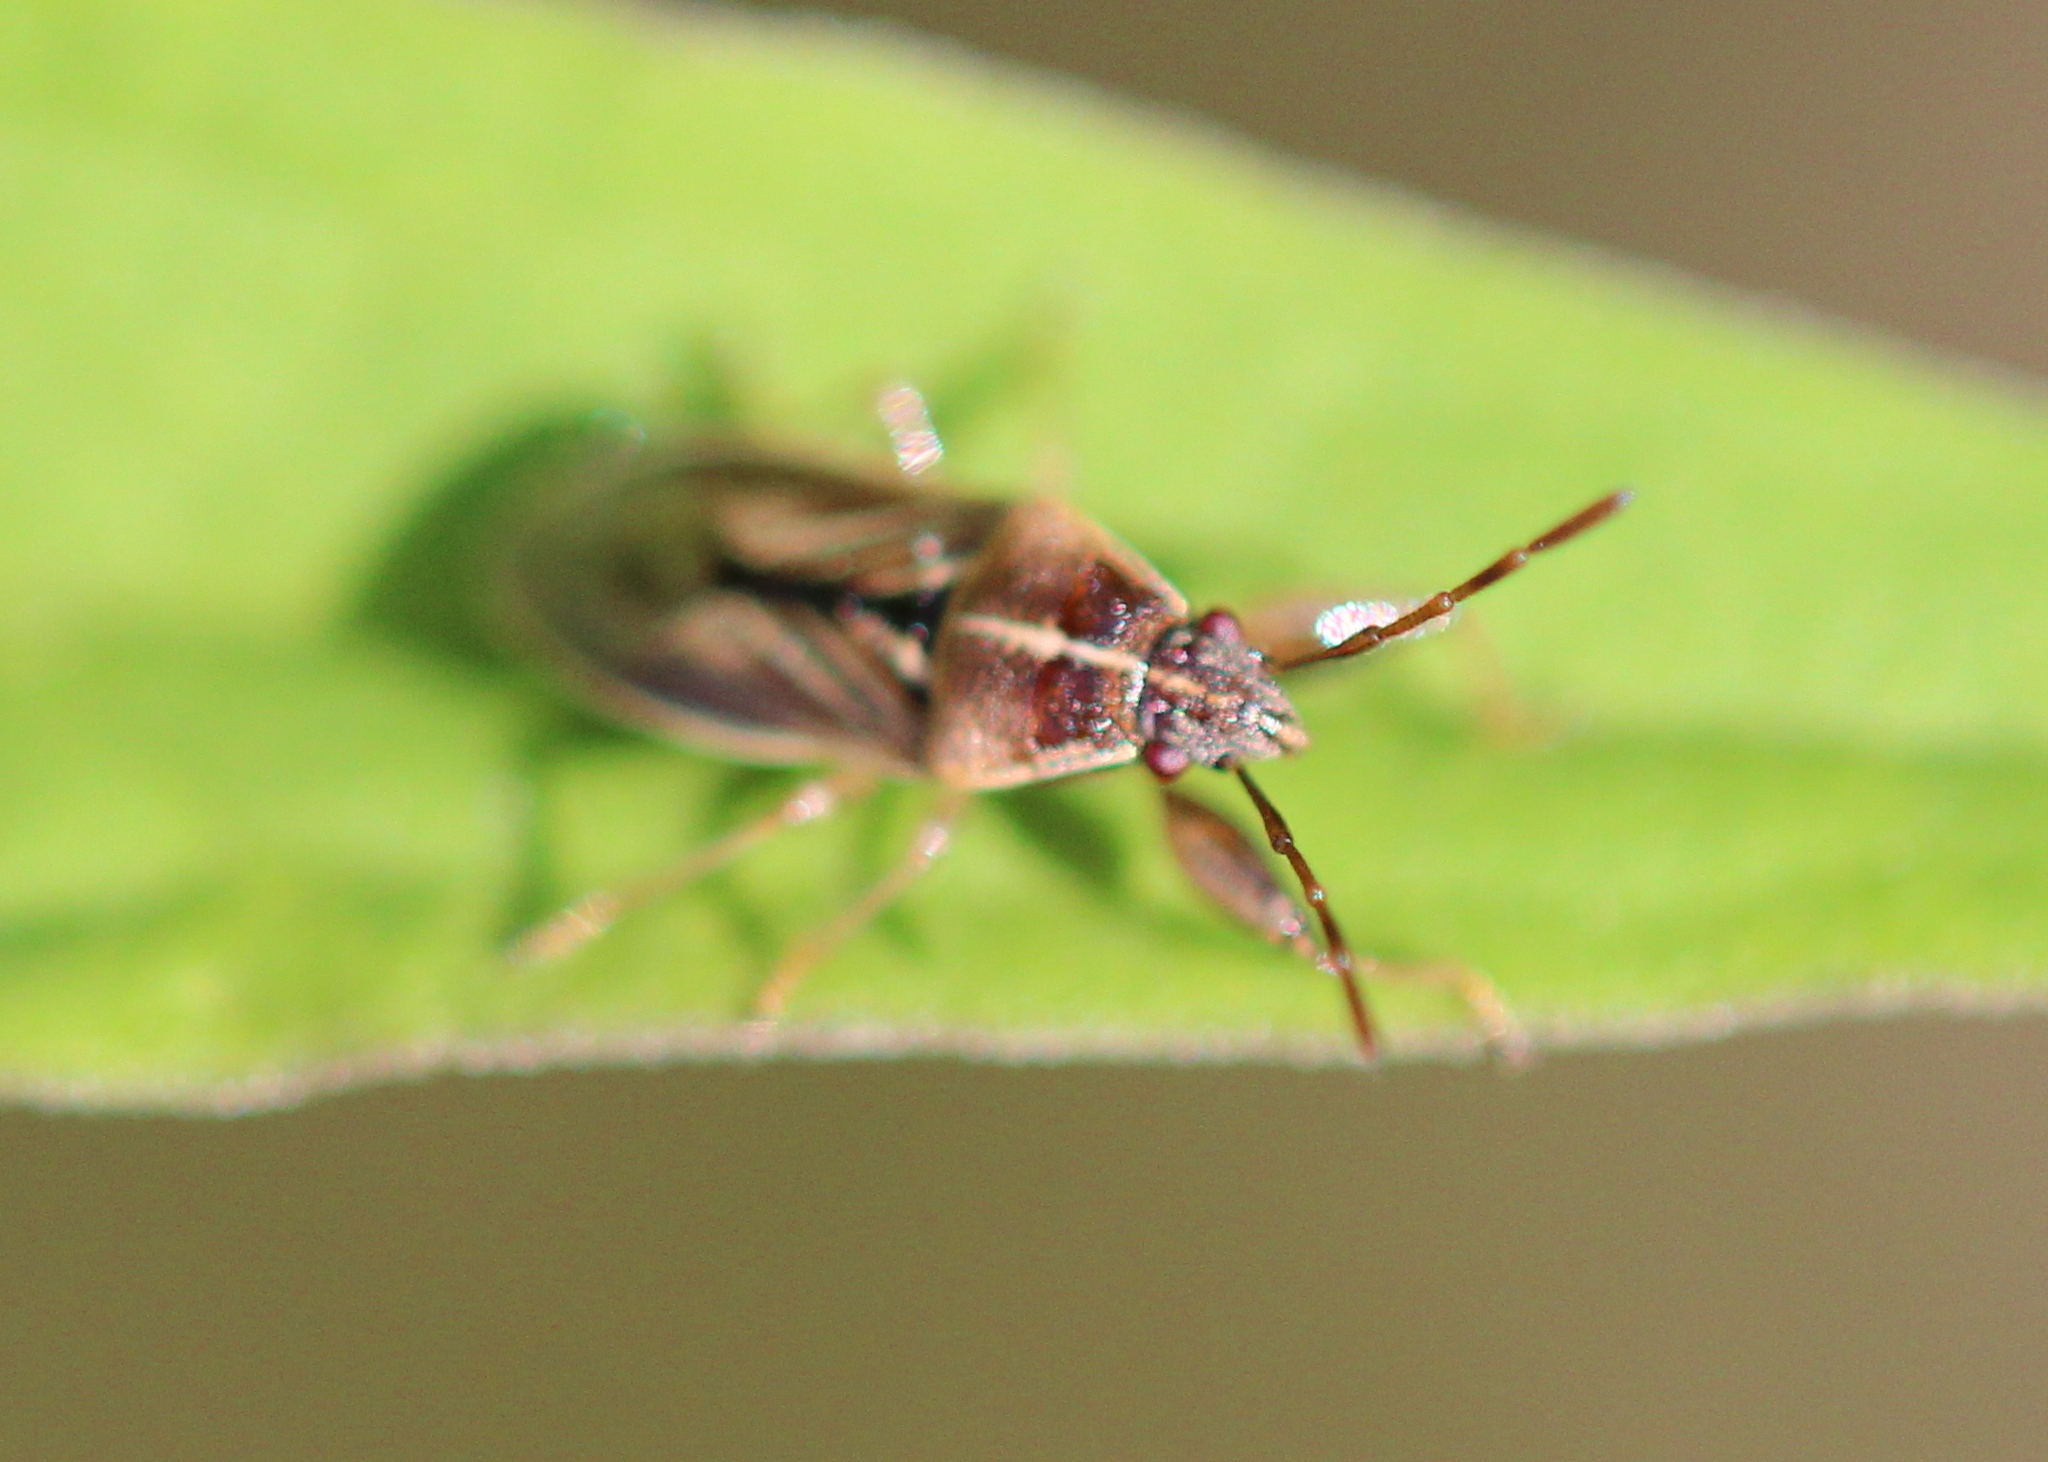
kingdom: Animalia
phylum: Arthropoda
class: Insecta
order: Hemiptera
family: Pachygronthidae
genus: Oedancala
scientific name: Oedancala dorsalis
